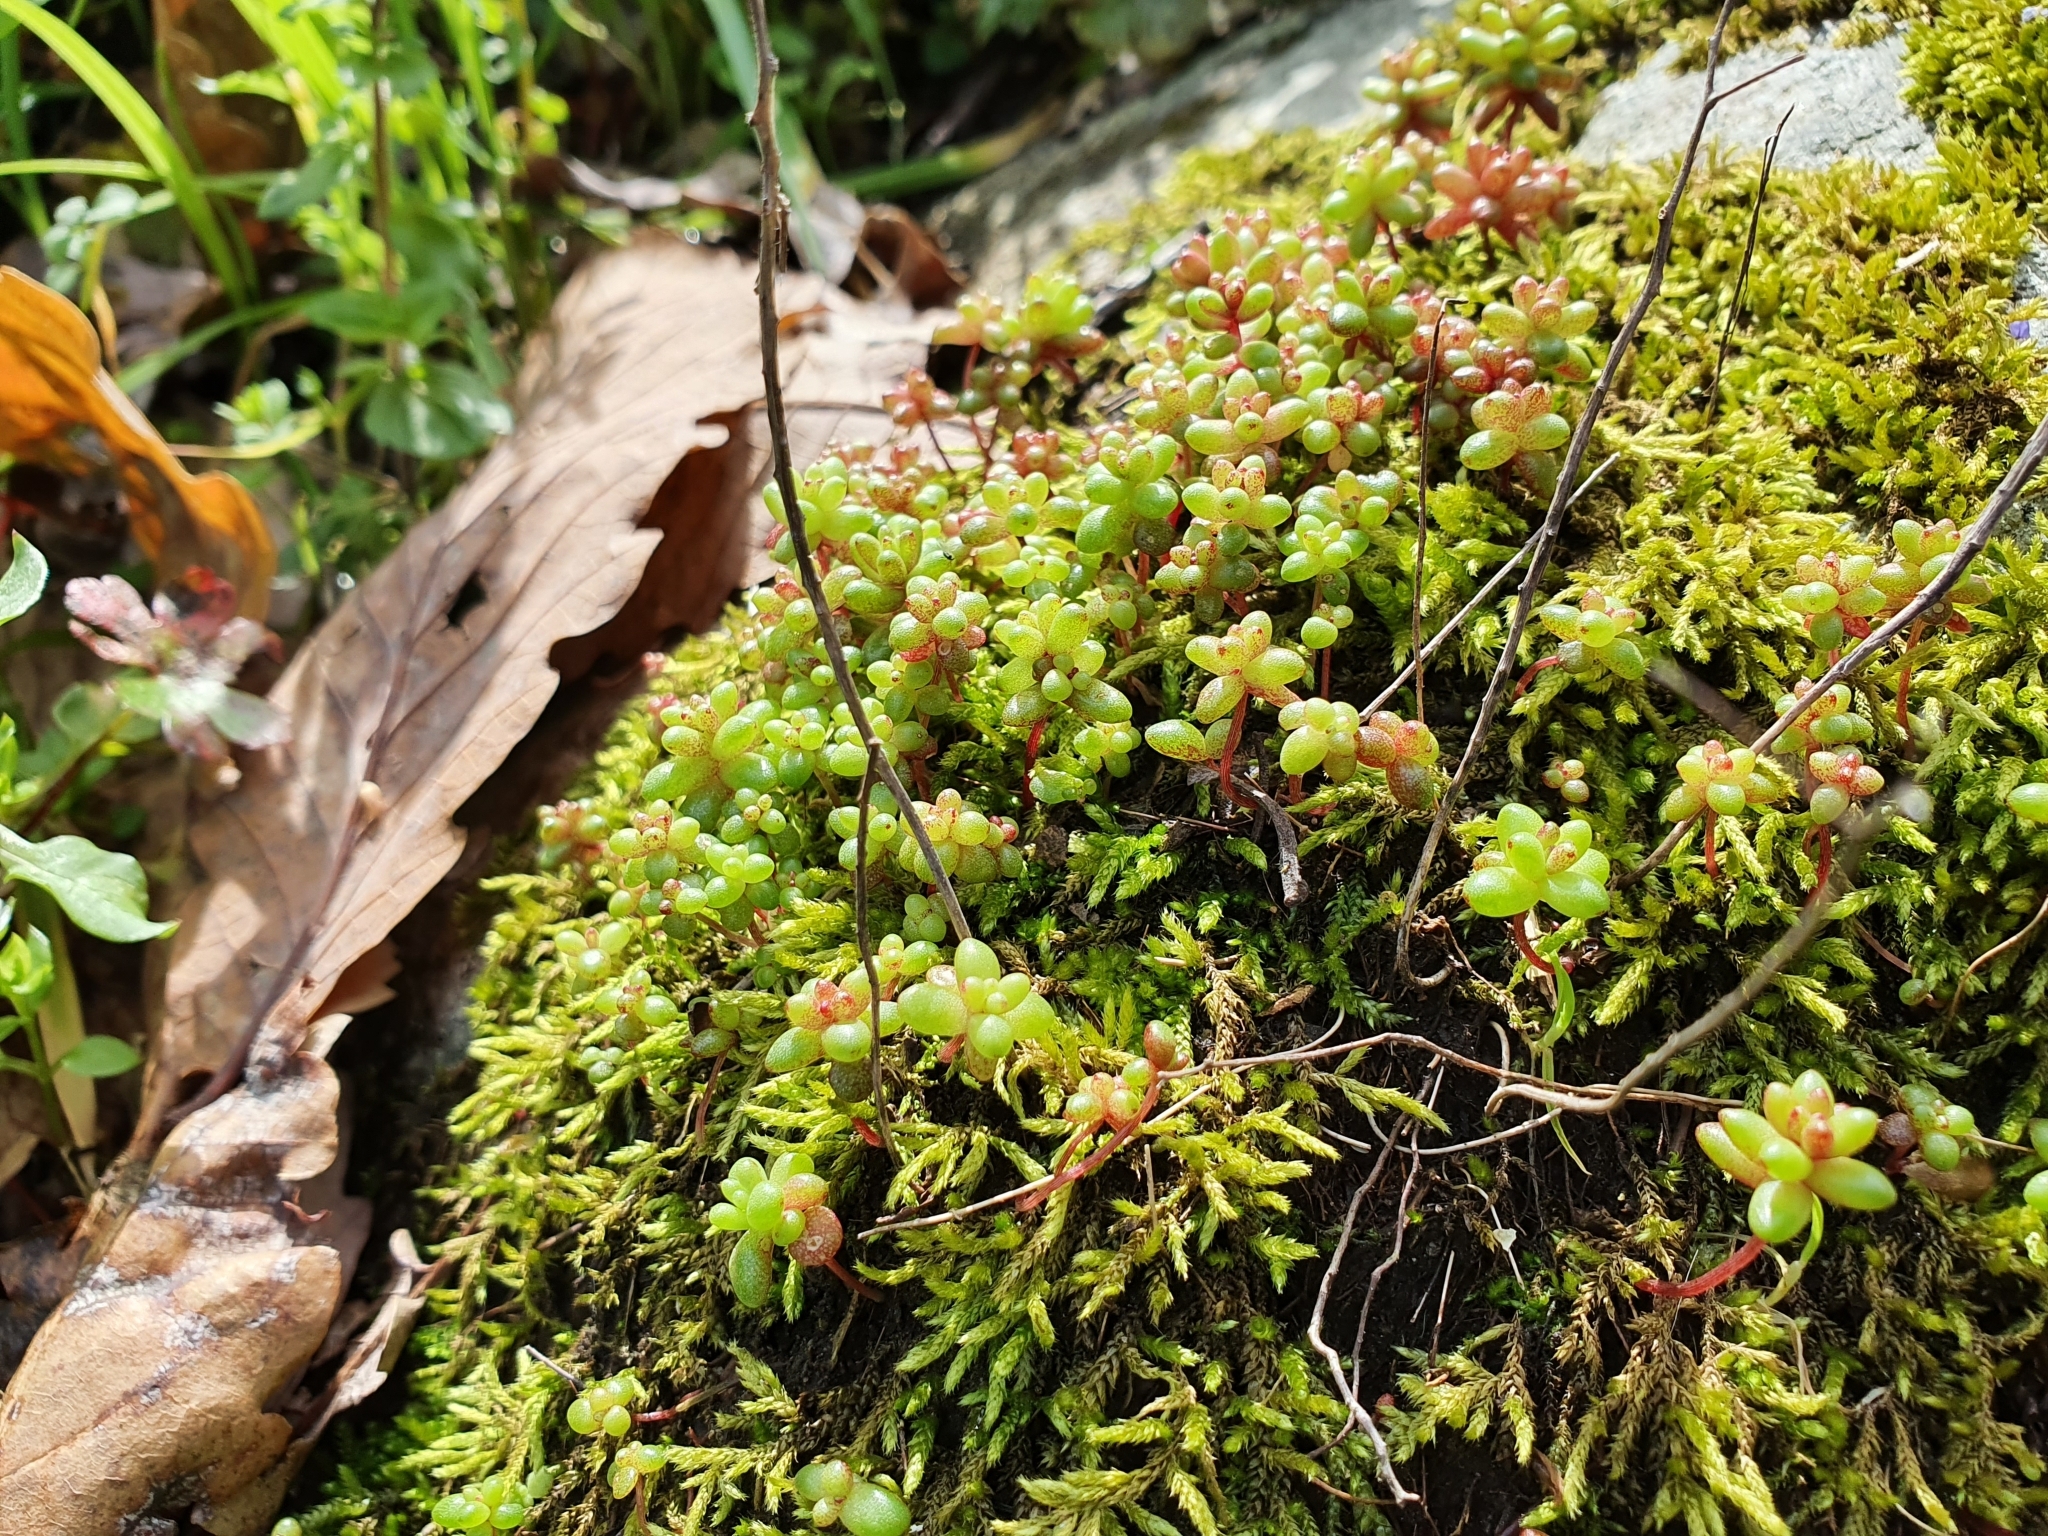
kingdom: Plantae
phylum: Tracheophyta
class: Magnoliopsida
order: Saxifragales
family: Crassulaceae
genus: Sedum
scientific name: Sedum caeruleum
